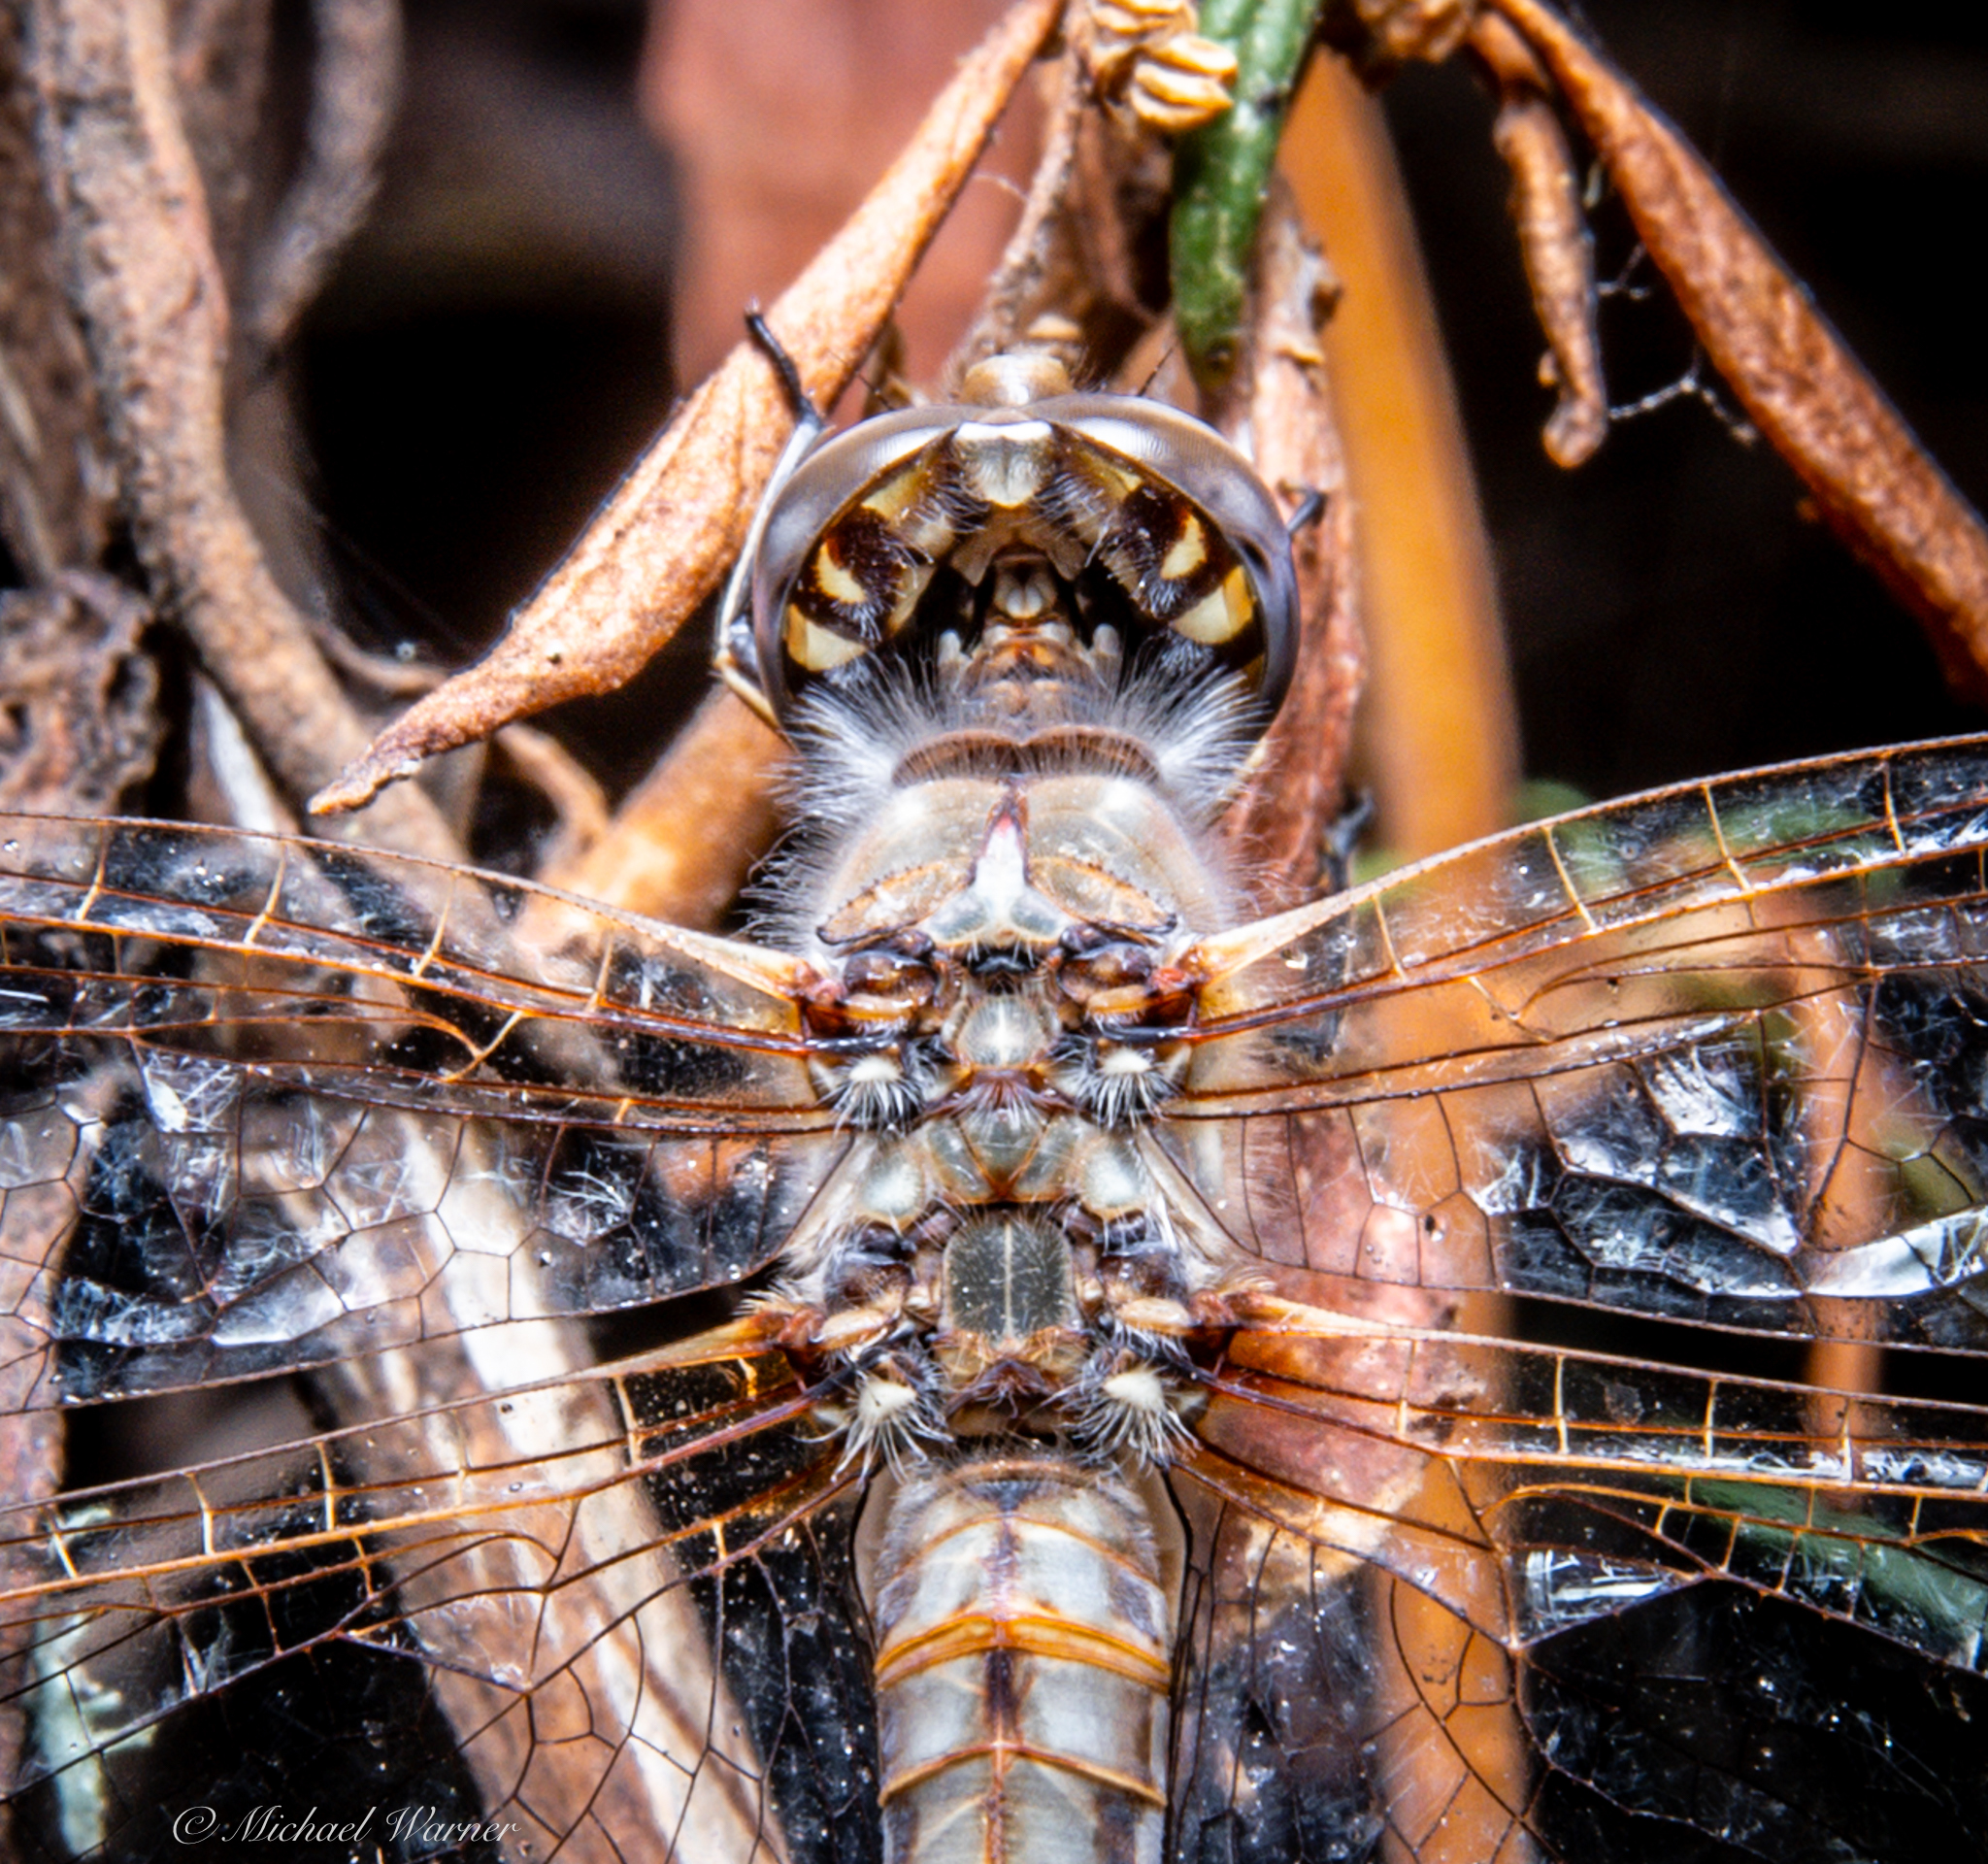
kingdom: Animalia
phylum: Arthropoda
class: Insecta
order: Odonata
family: Libellulidae
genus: Sympetrum
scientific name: Sympetrum corruptum
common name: Variegated meadowhawk
